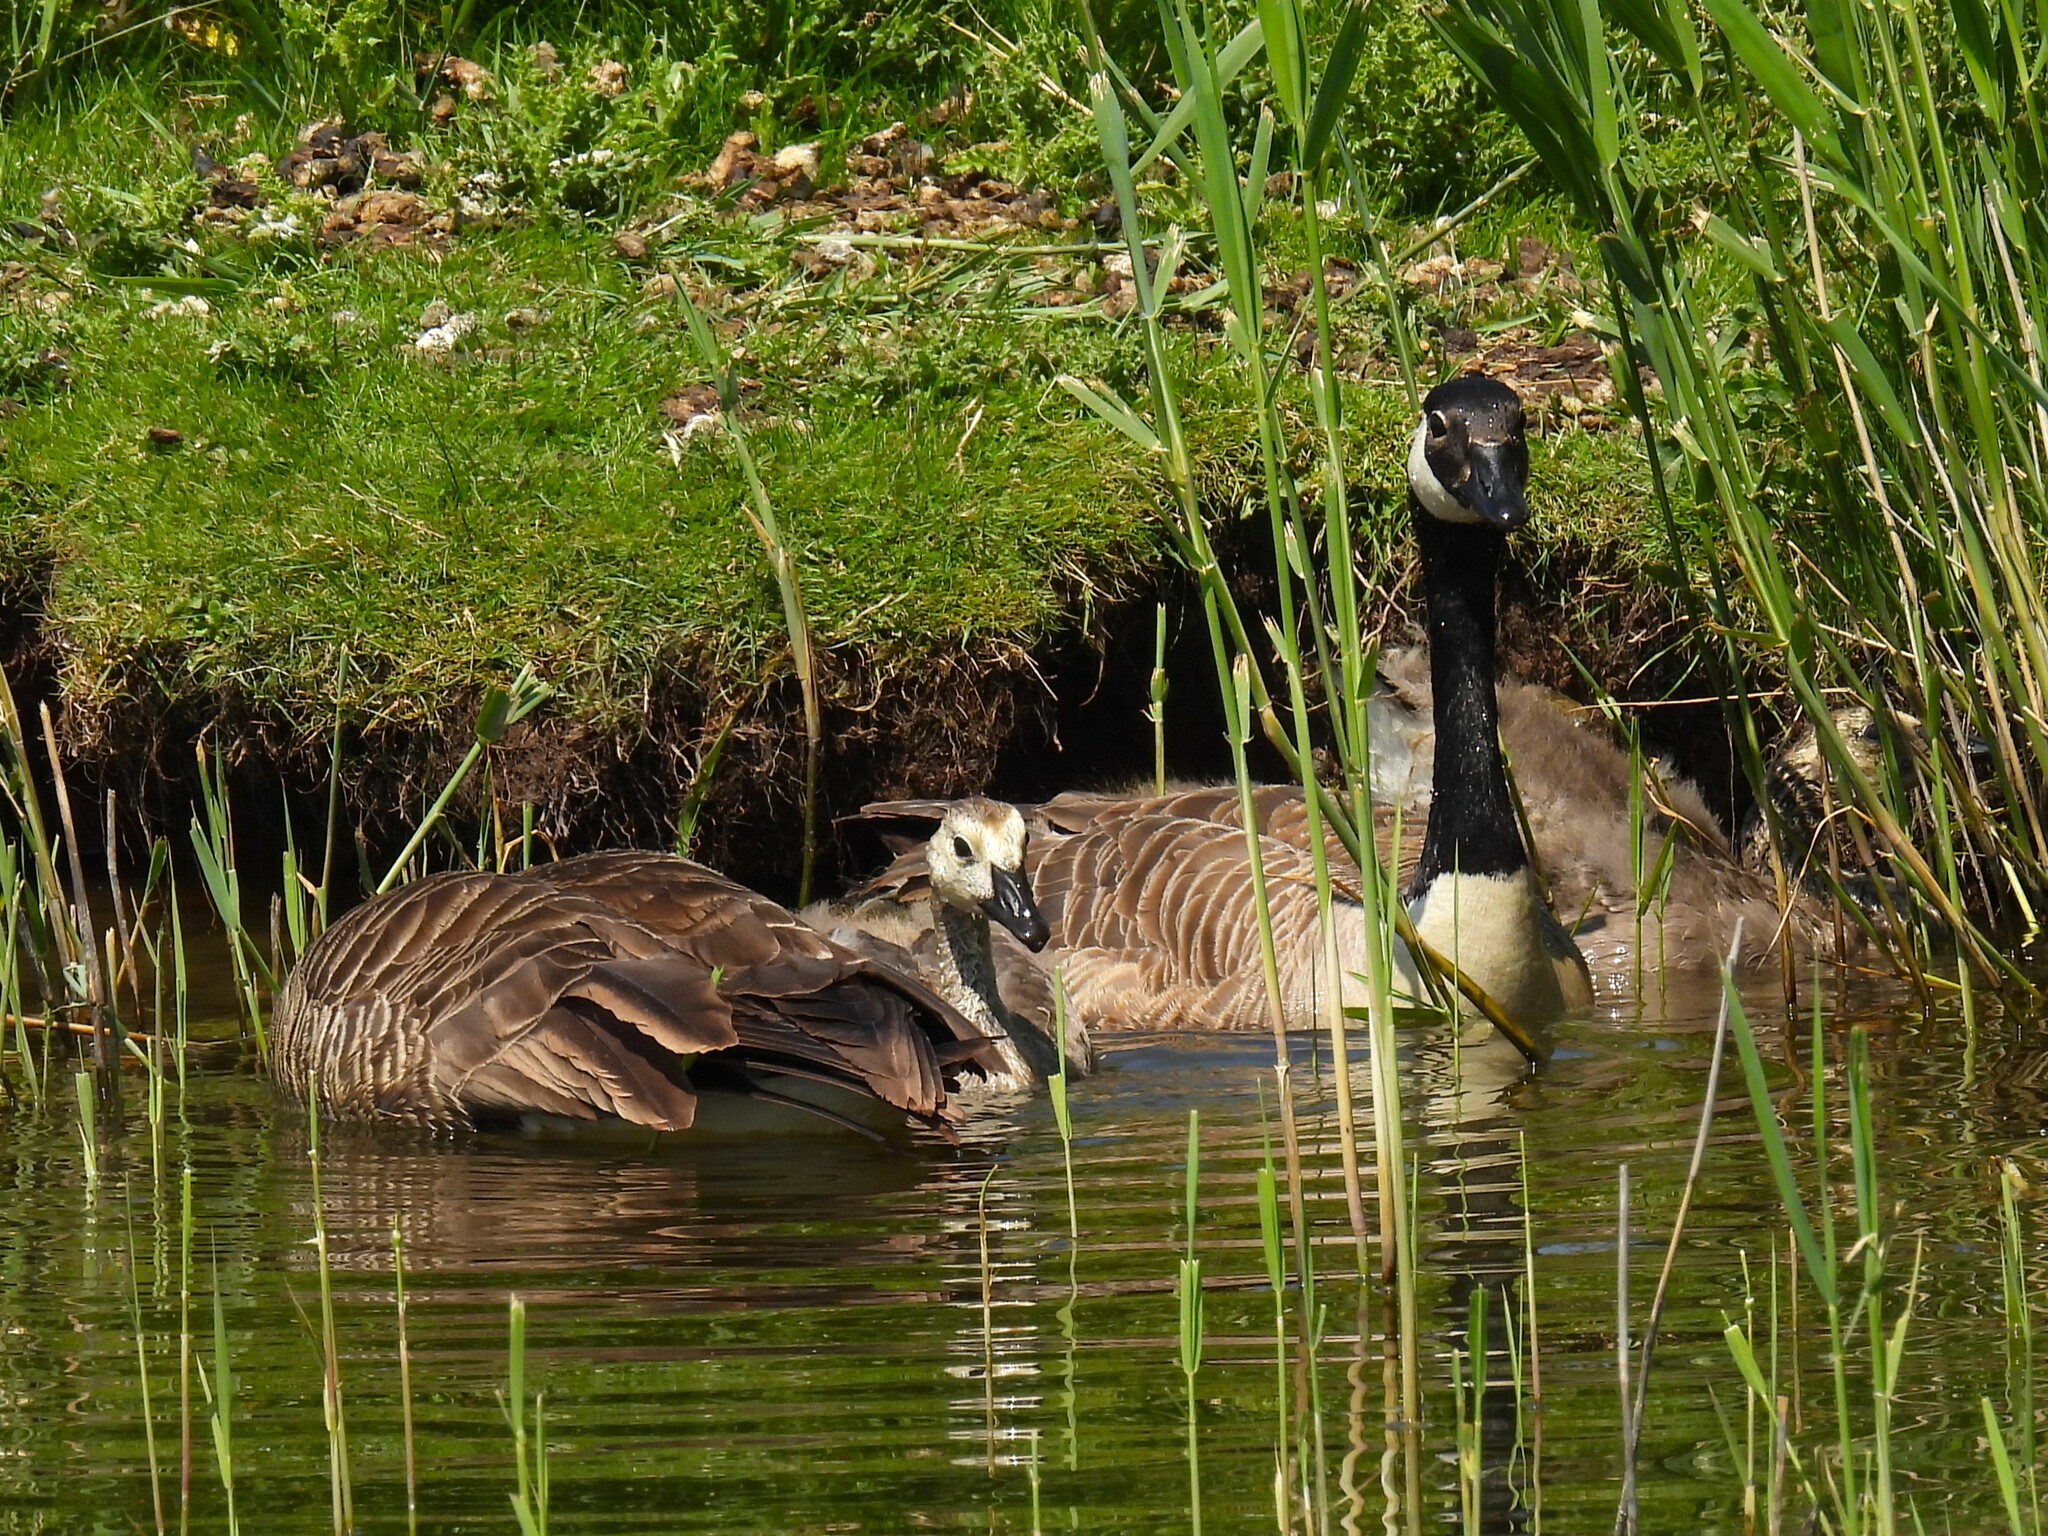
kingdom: Animalia
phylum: Chordata
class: Aves
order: Anseriformes
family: Anatidae
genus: Branta
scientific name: Branta canadensis
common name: Canada goose
